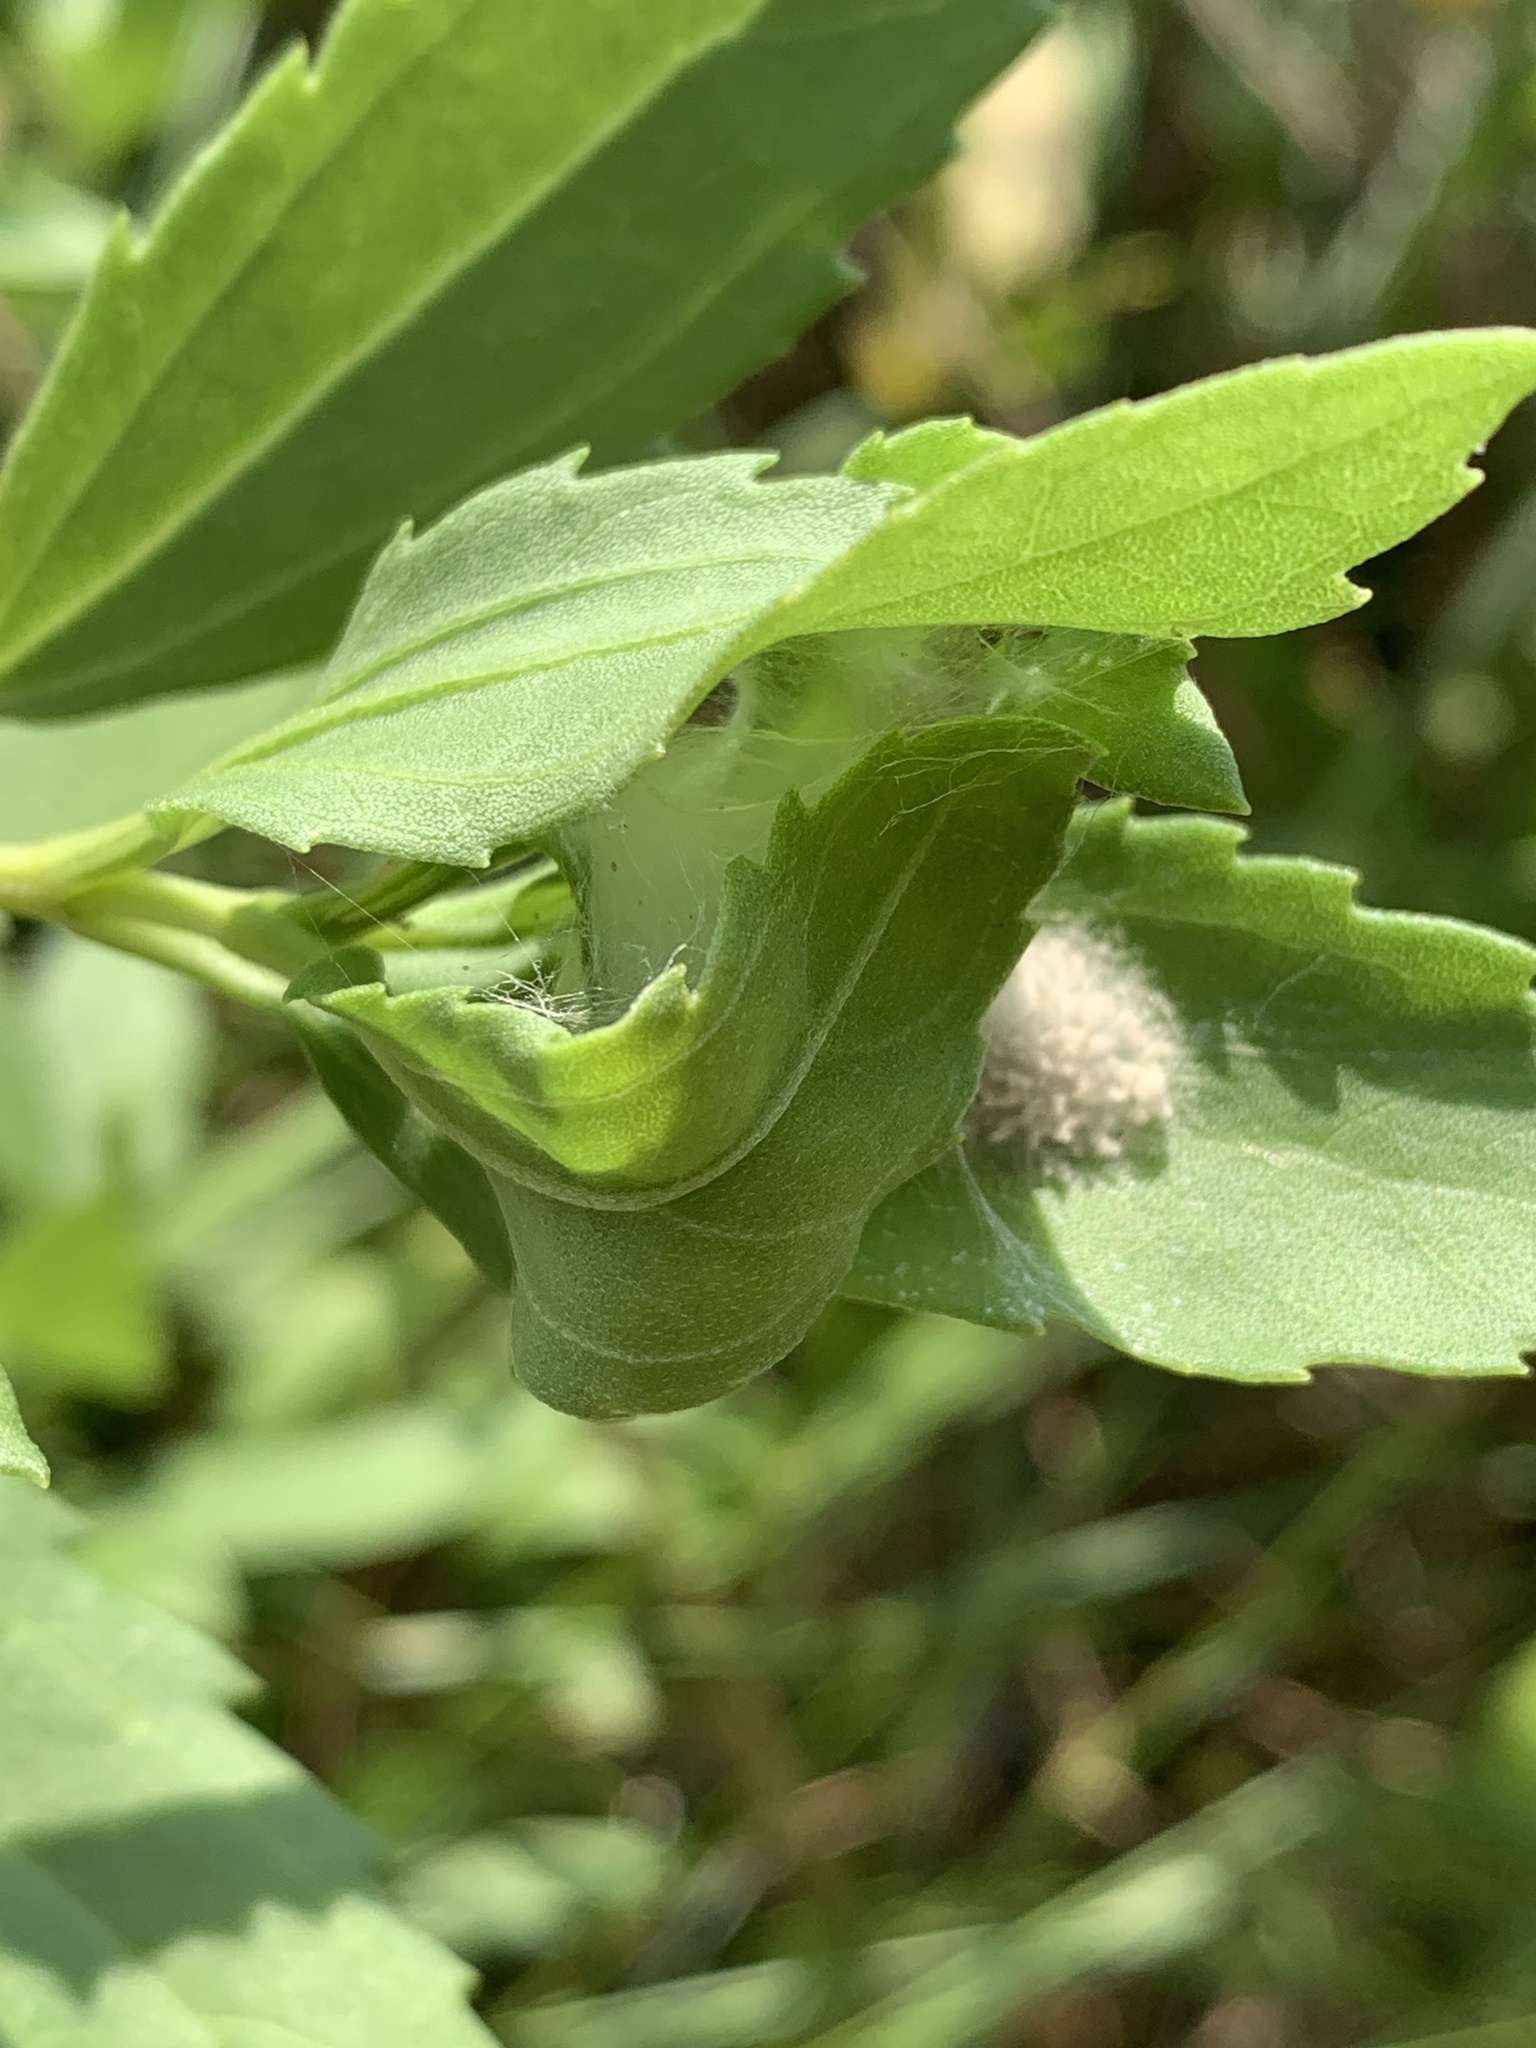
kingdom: Plantae
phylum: Tracheophyta
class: Magnoliopsida
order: Asterales
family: Asteraceae
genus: Iva
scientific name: Iva frutescens
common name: Big-leaved marsh-elder
